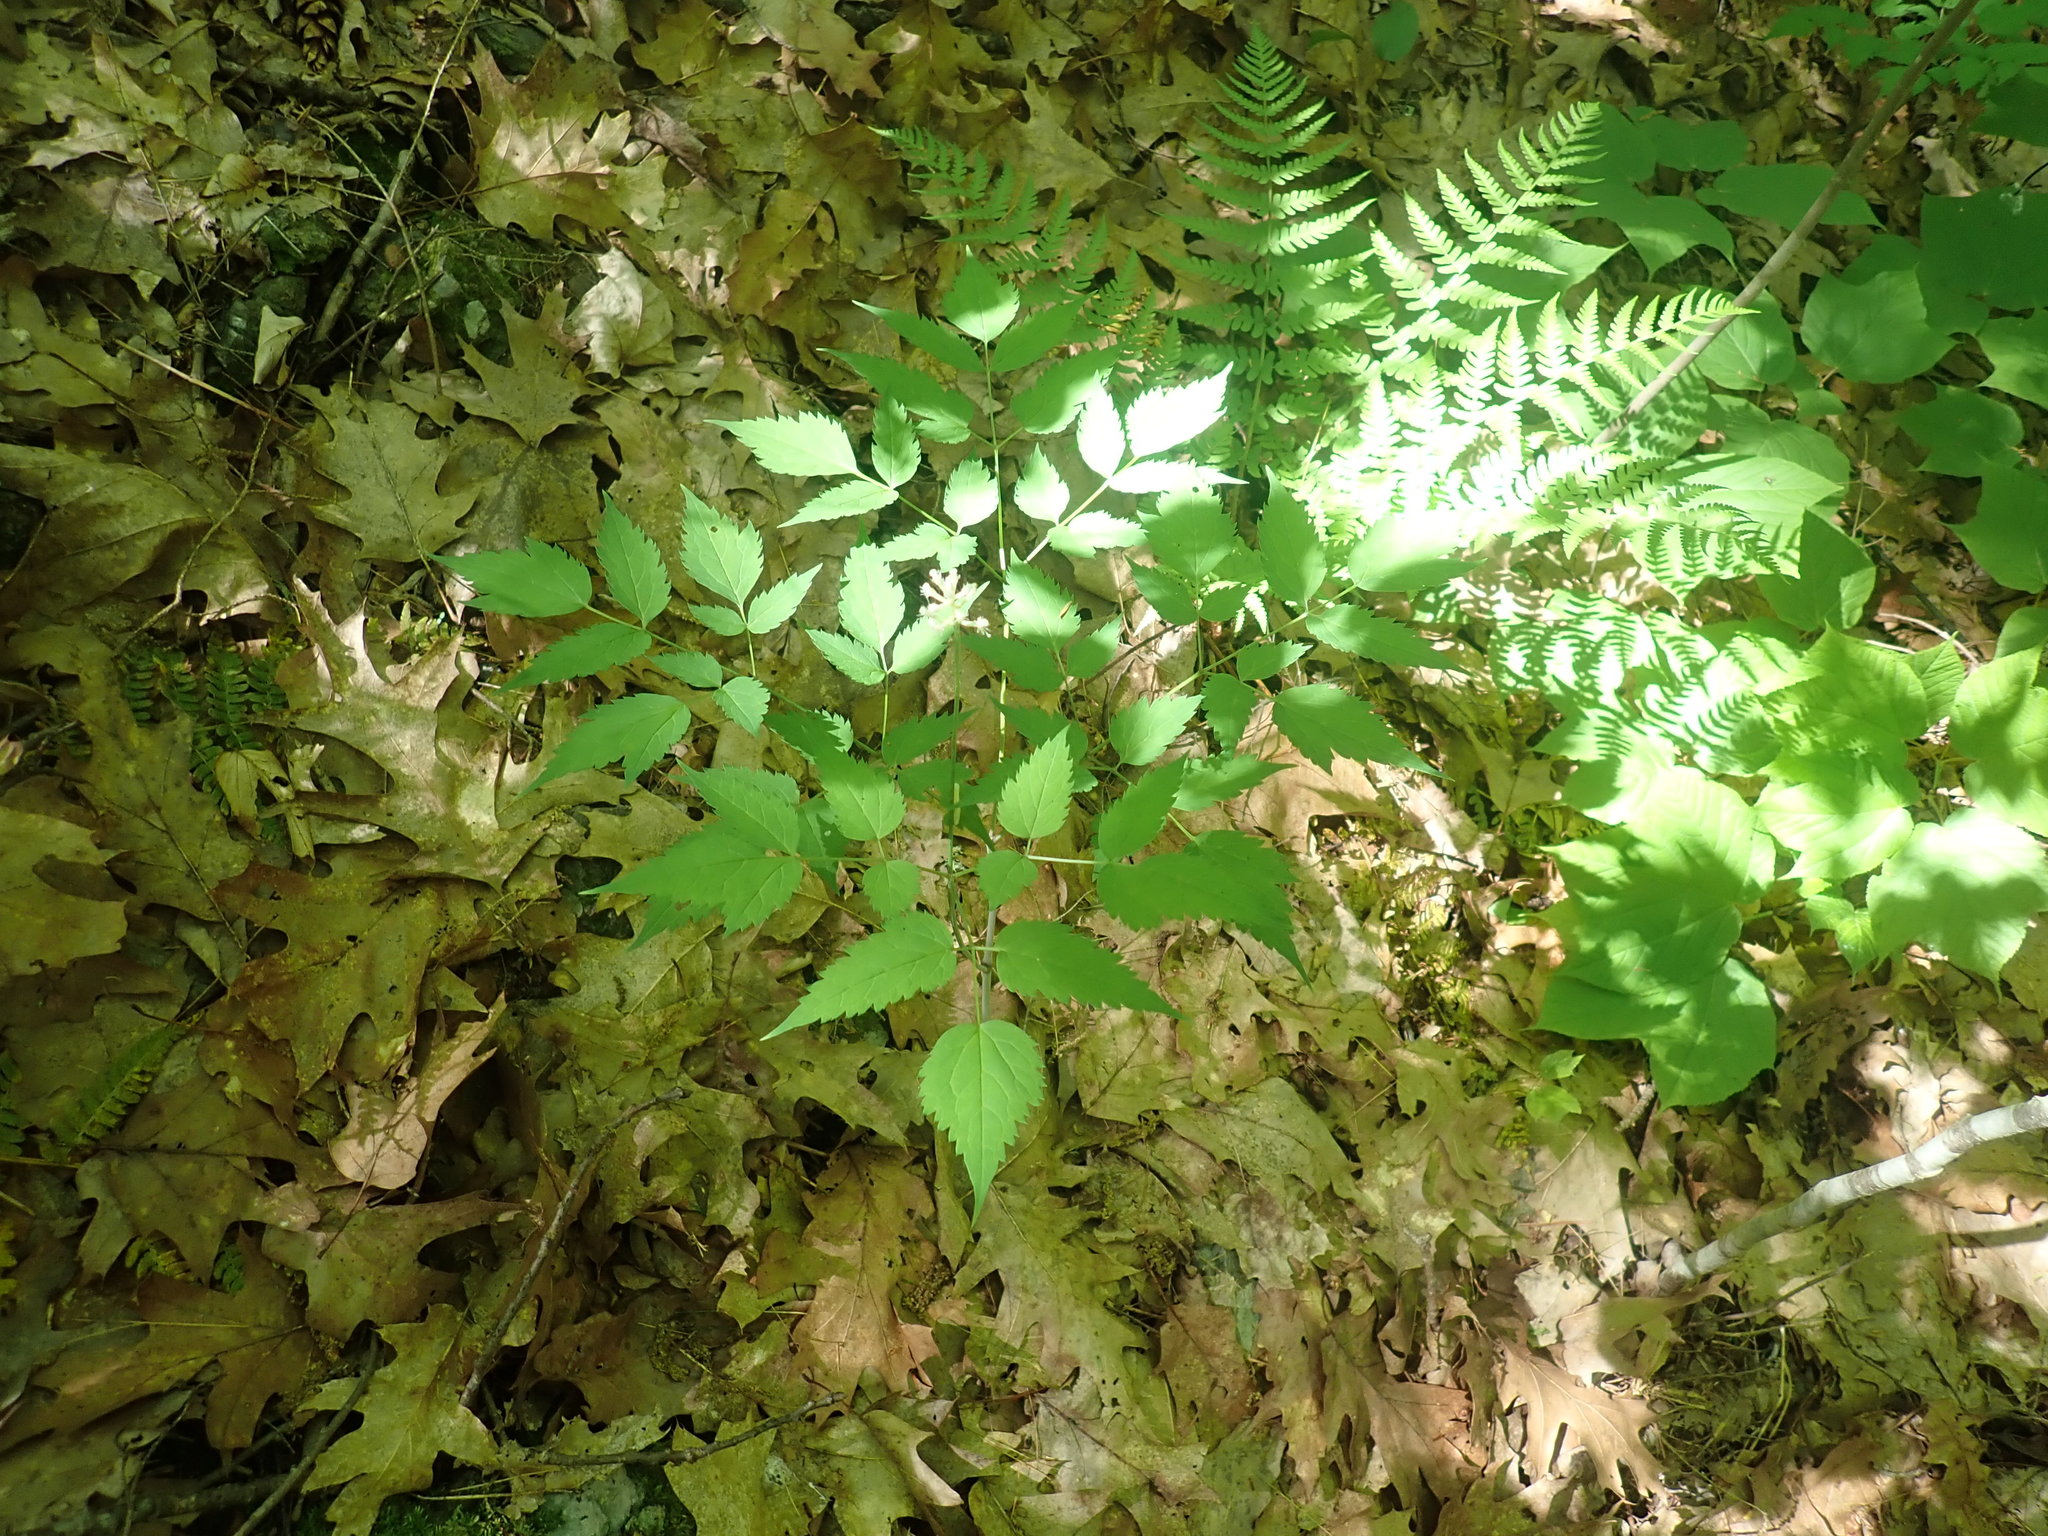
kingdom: Plantae
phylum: Tracheophyta
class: Magnoliopsida
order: Ranunculales
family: Ranunculaceae
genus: Actaea
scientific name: Actaea pachypoda
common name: Doll's-eyes
